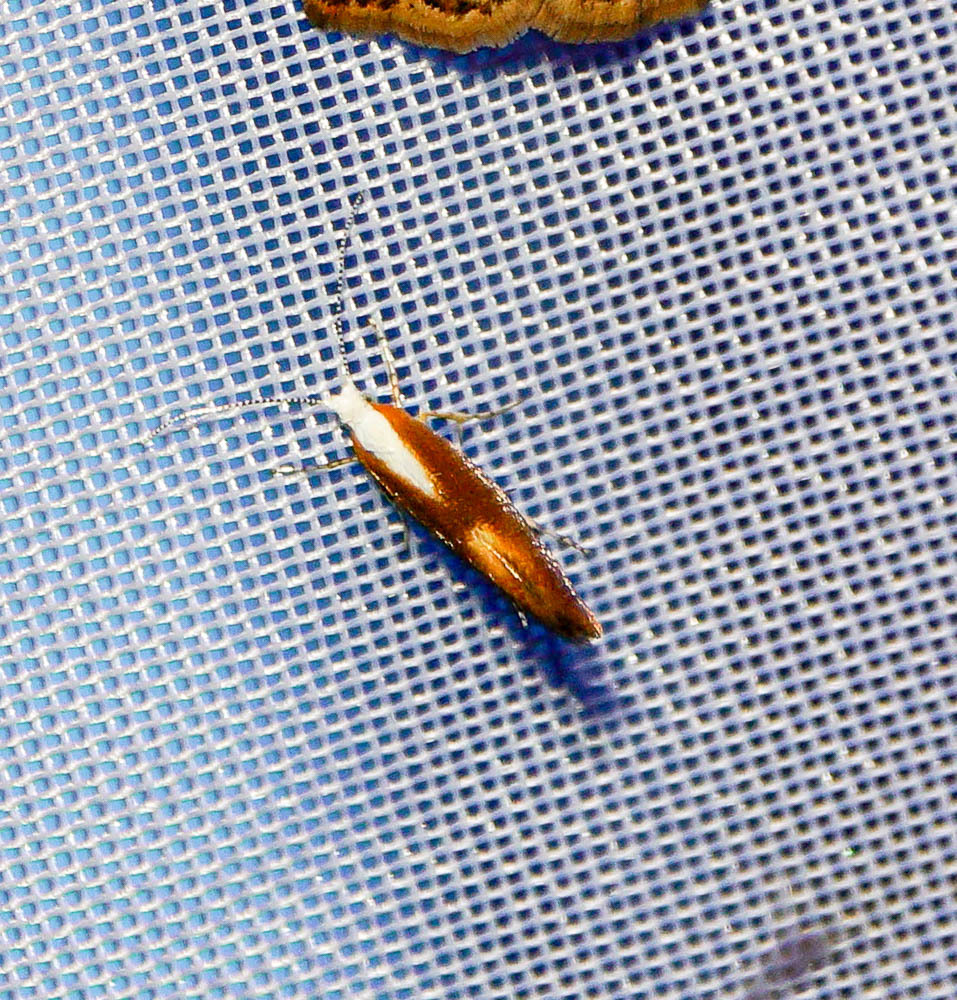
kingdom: Animalia
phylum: Arthropoda
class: Insecta
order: Lepidoptera
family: Argyresthiidae
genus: Argyresthia
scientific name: Argyresthia albistria
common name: Purple argent
